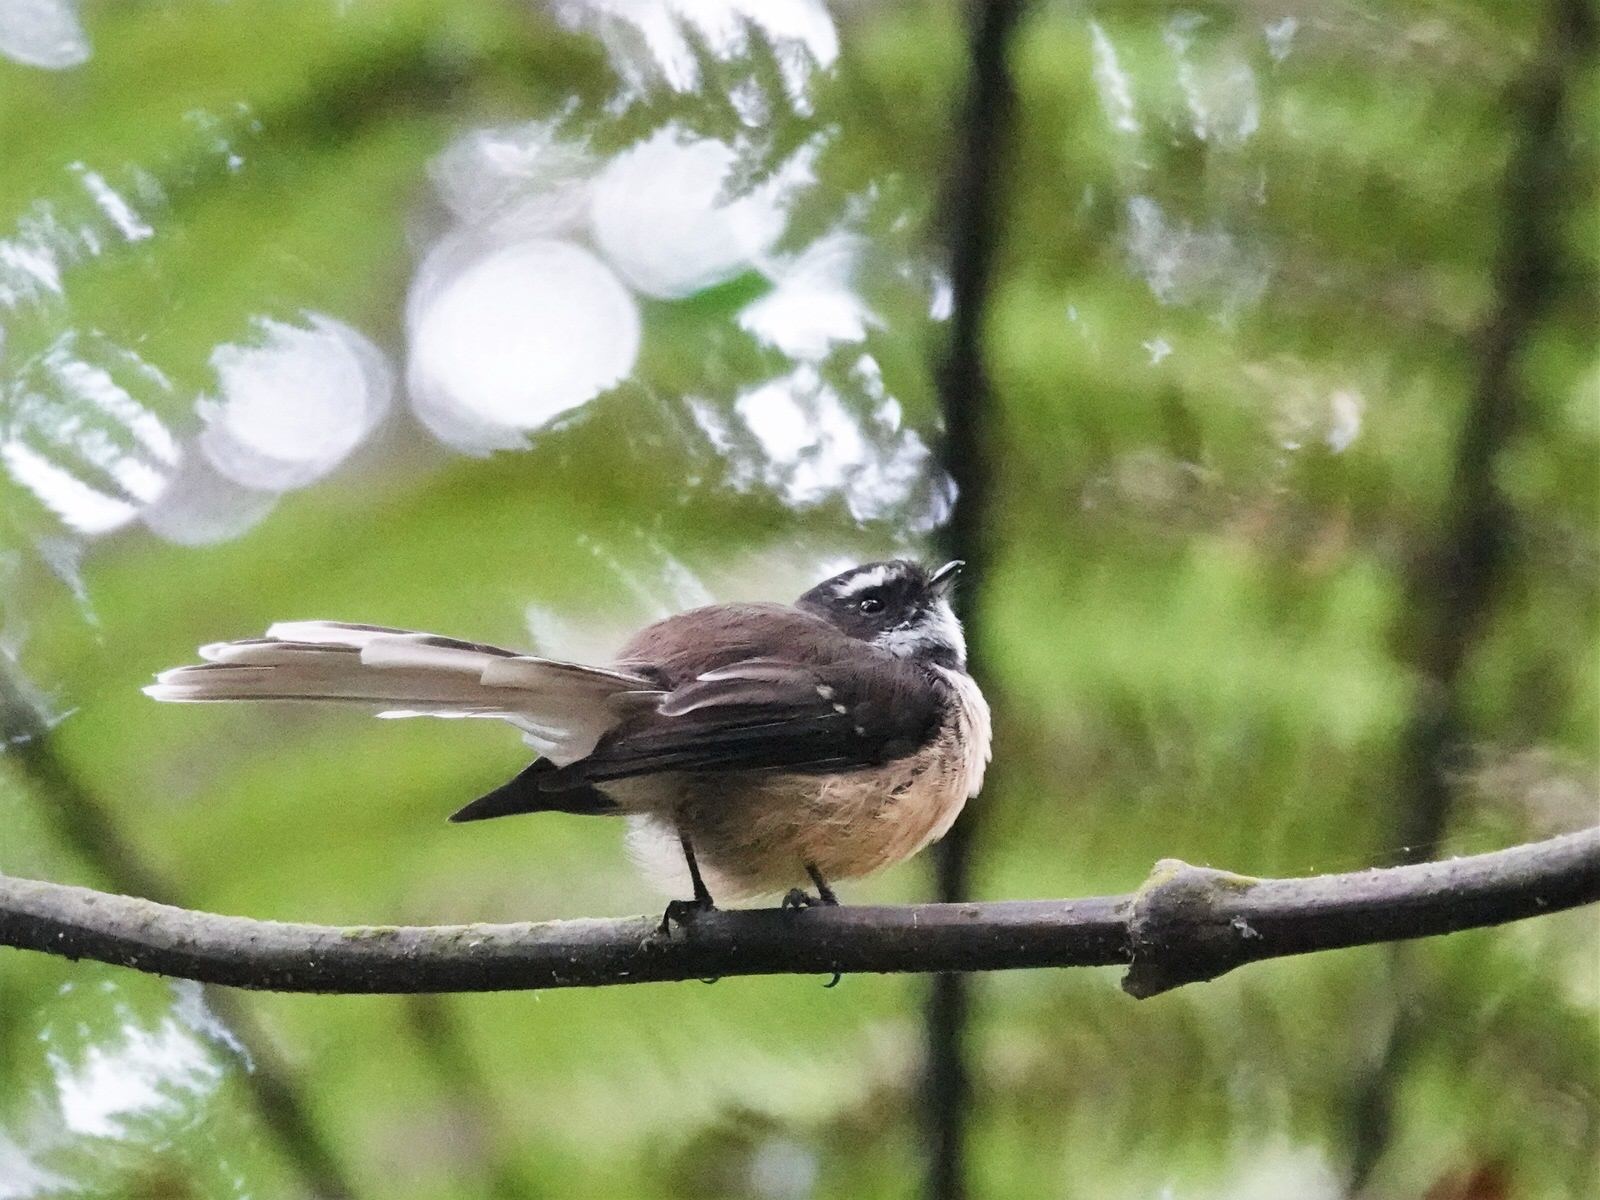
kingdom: Animalia
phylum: Chordata
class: Aves
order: Passeriformes
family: Rhipiduridae
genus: Rhipidura
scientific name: Rhipidura fuliginosa
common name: New zealand fantail
